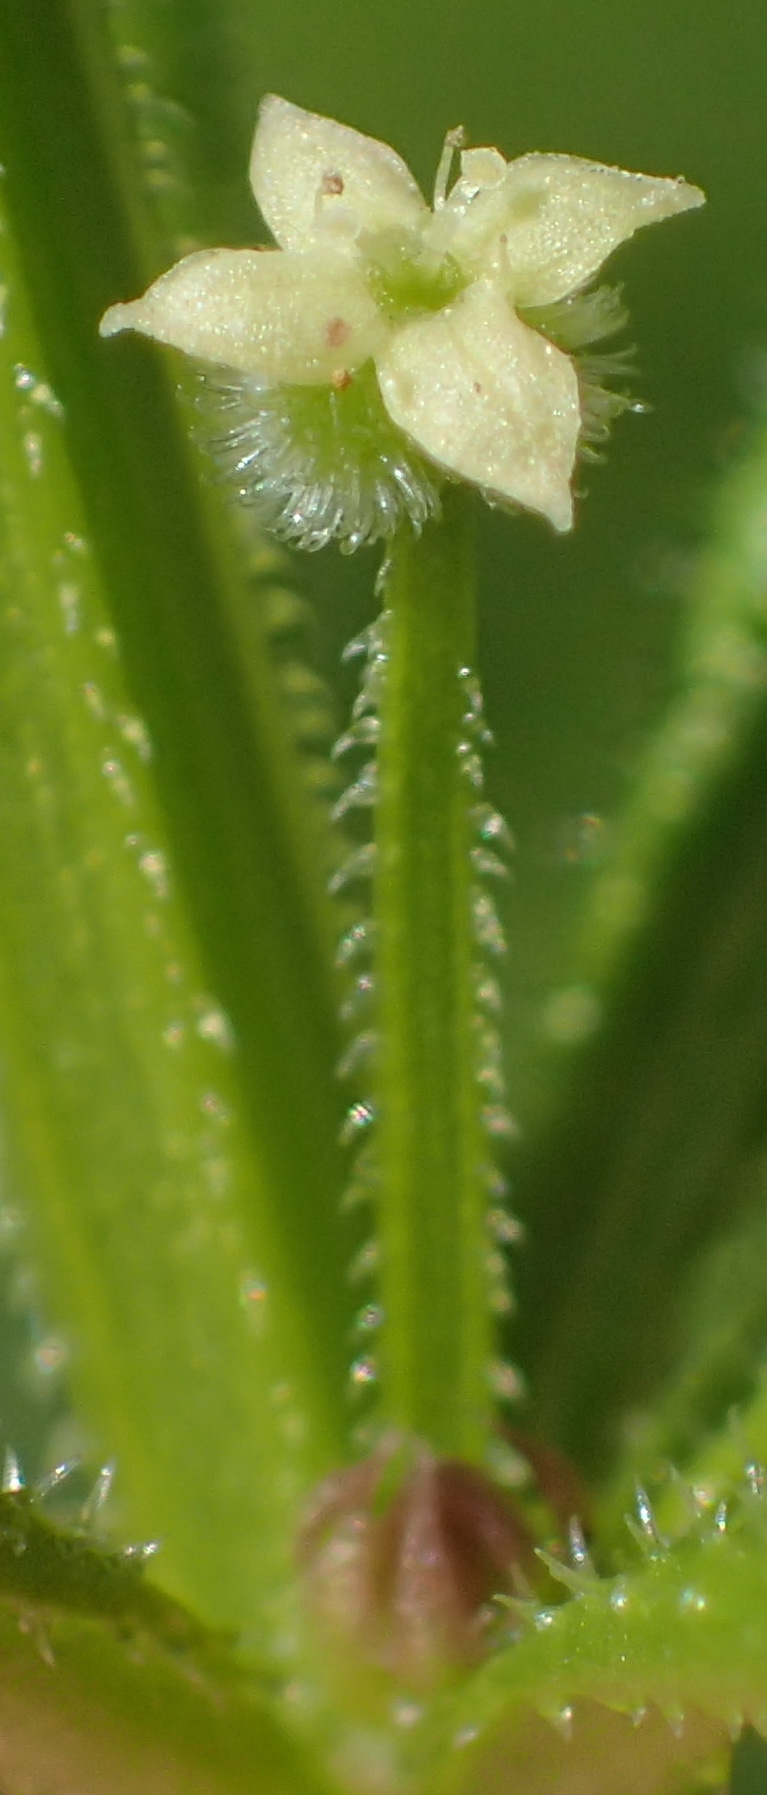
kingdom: Plantae
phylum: Tracheophyta
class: Magnoliopsida
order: Gentianales
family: Rubiaceae
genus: Rubia
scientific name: Rubia petiolaris
